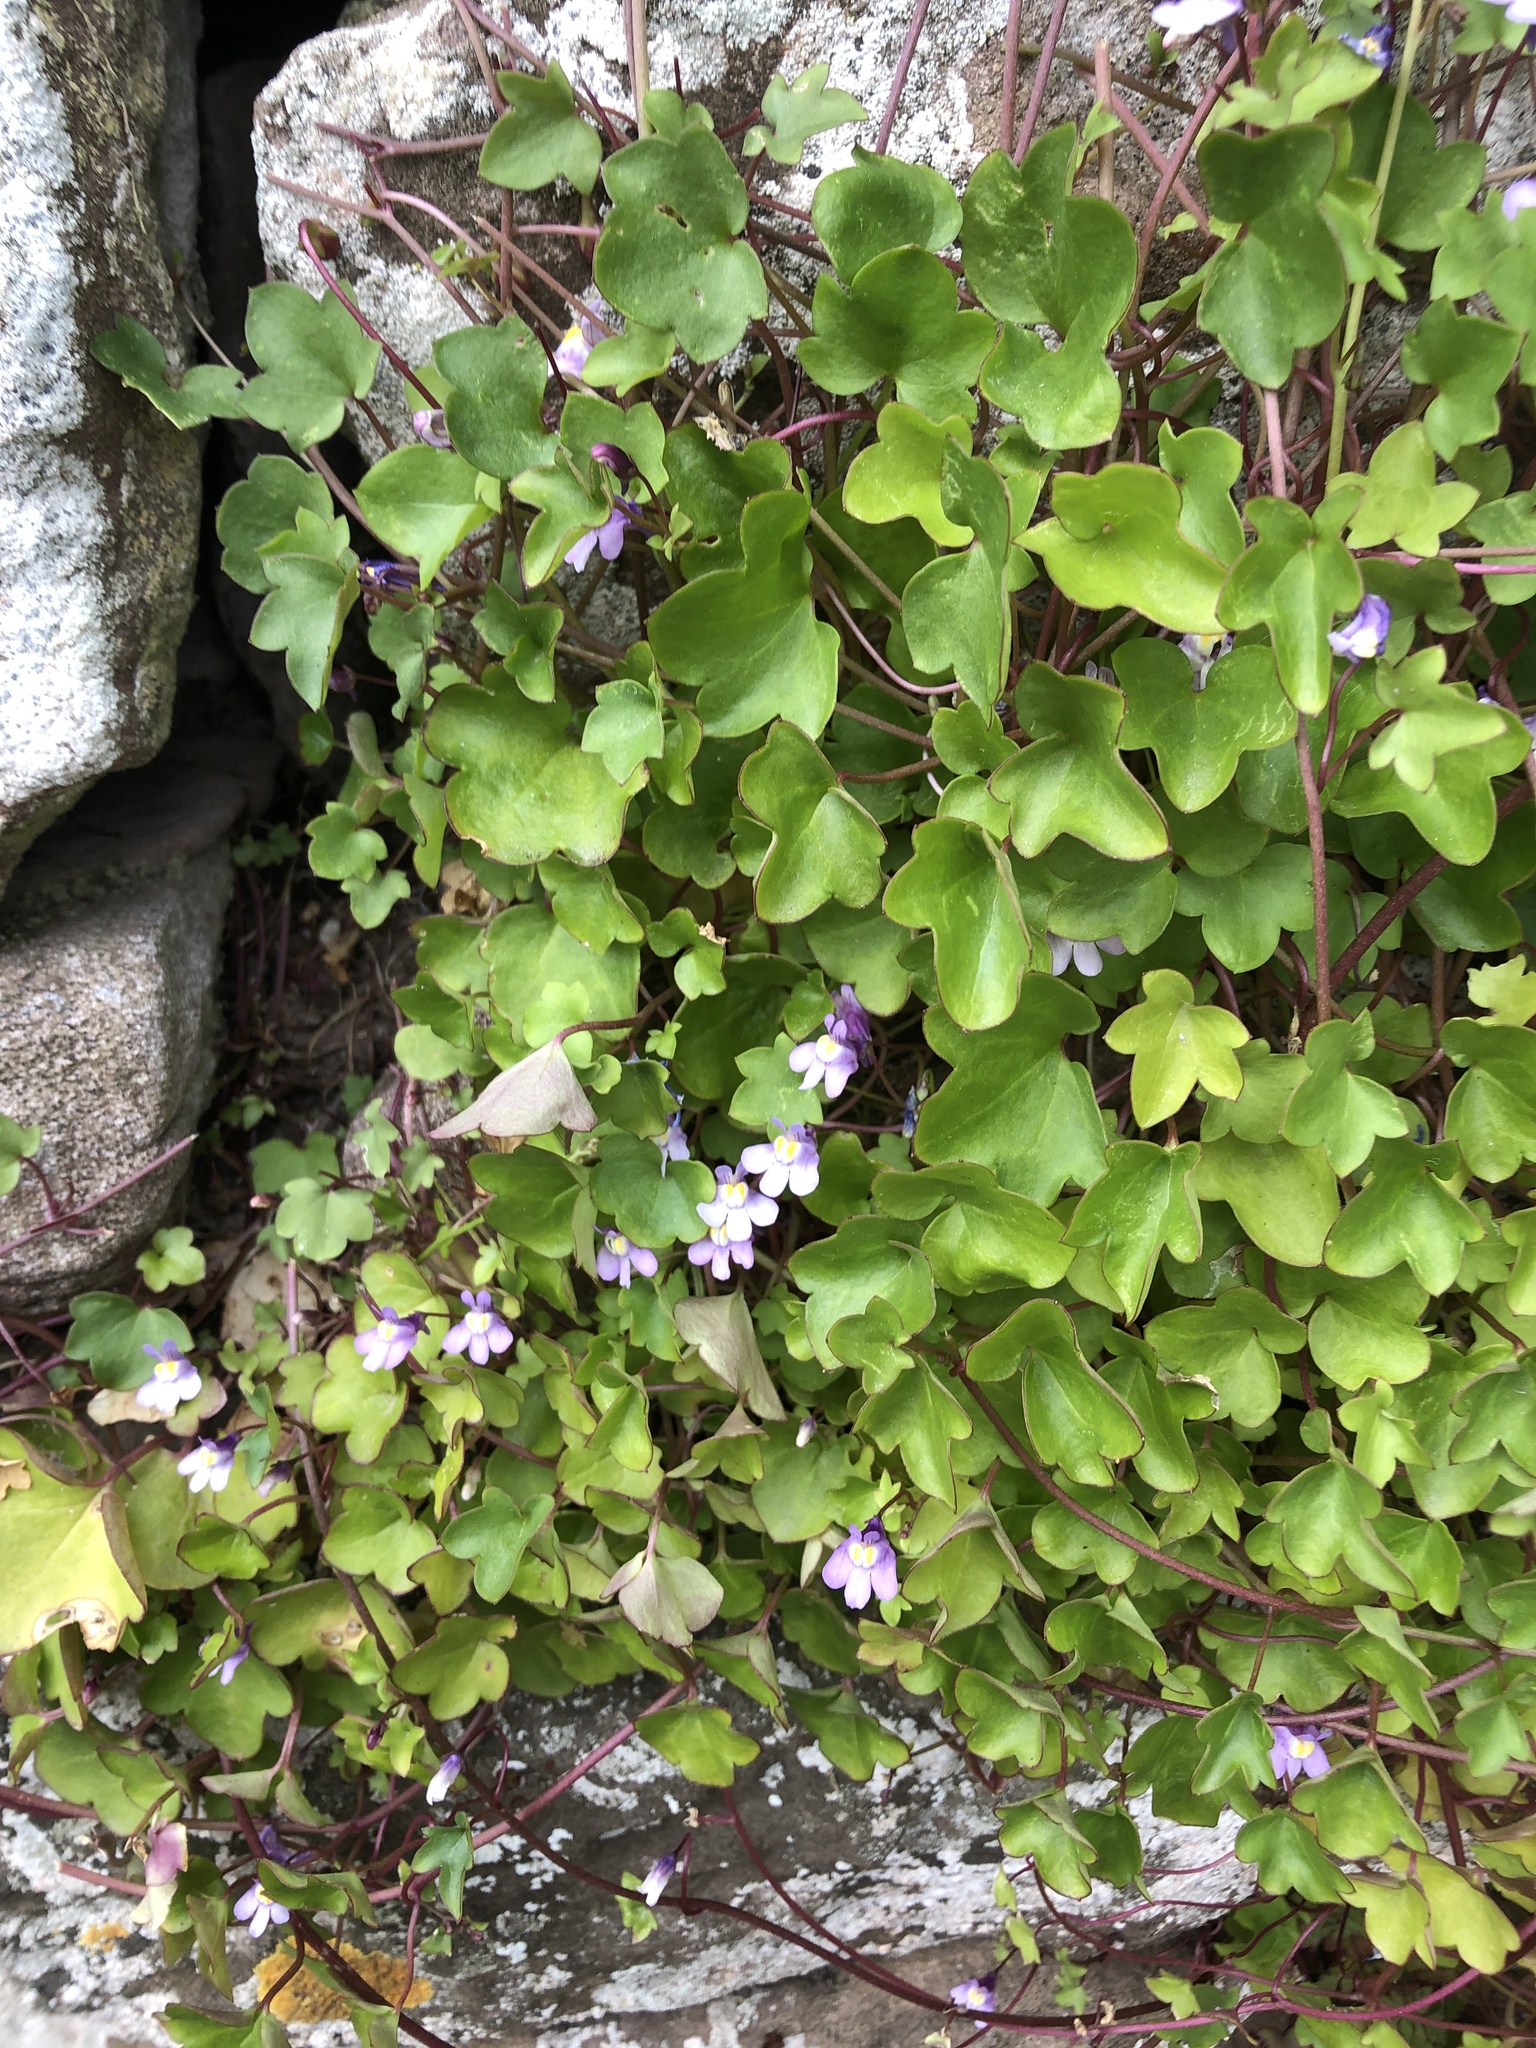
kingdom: Plantae
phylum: Tracheophyta
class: Magnoliopsida
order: Lamiales
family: Plantaginaceae
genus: Cymbalaria
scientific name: Cymbalaria muralis
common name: Ivy-leaved toadflax
